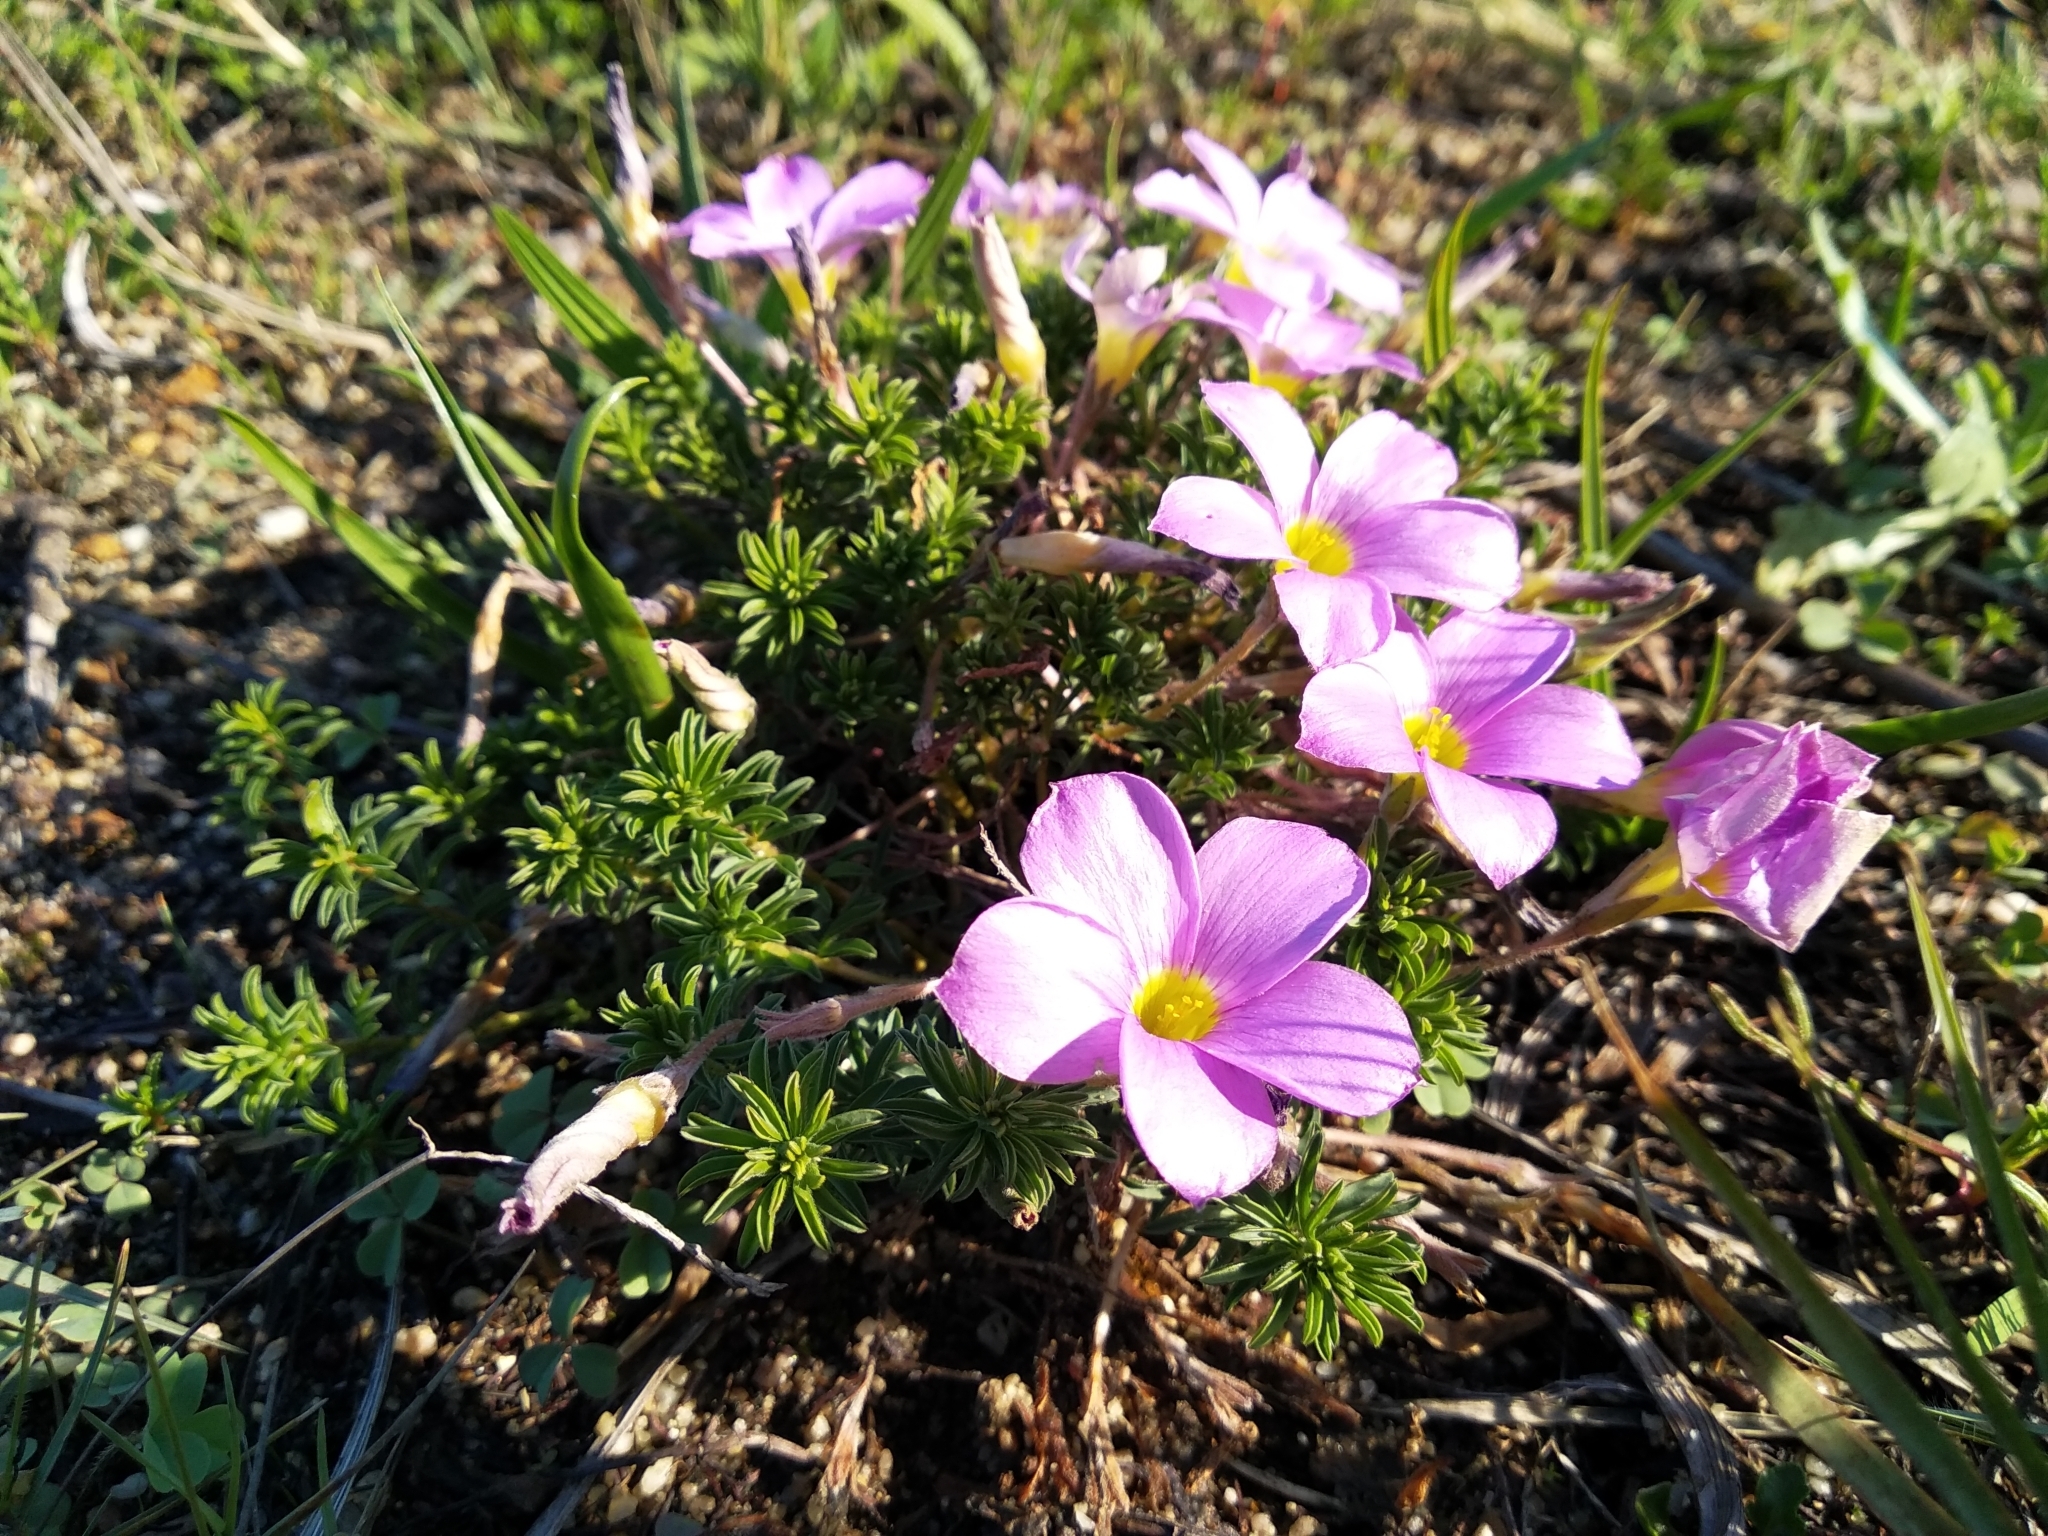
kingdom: Plantae
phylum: Tracheophyta
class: Magnoliopsida
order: Oxalidales
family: Oxalidaceae
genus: Oxalis
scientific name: Oxalis hirta
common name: Tropical woodsorrel
